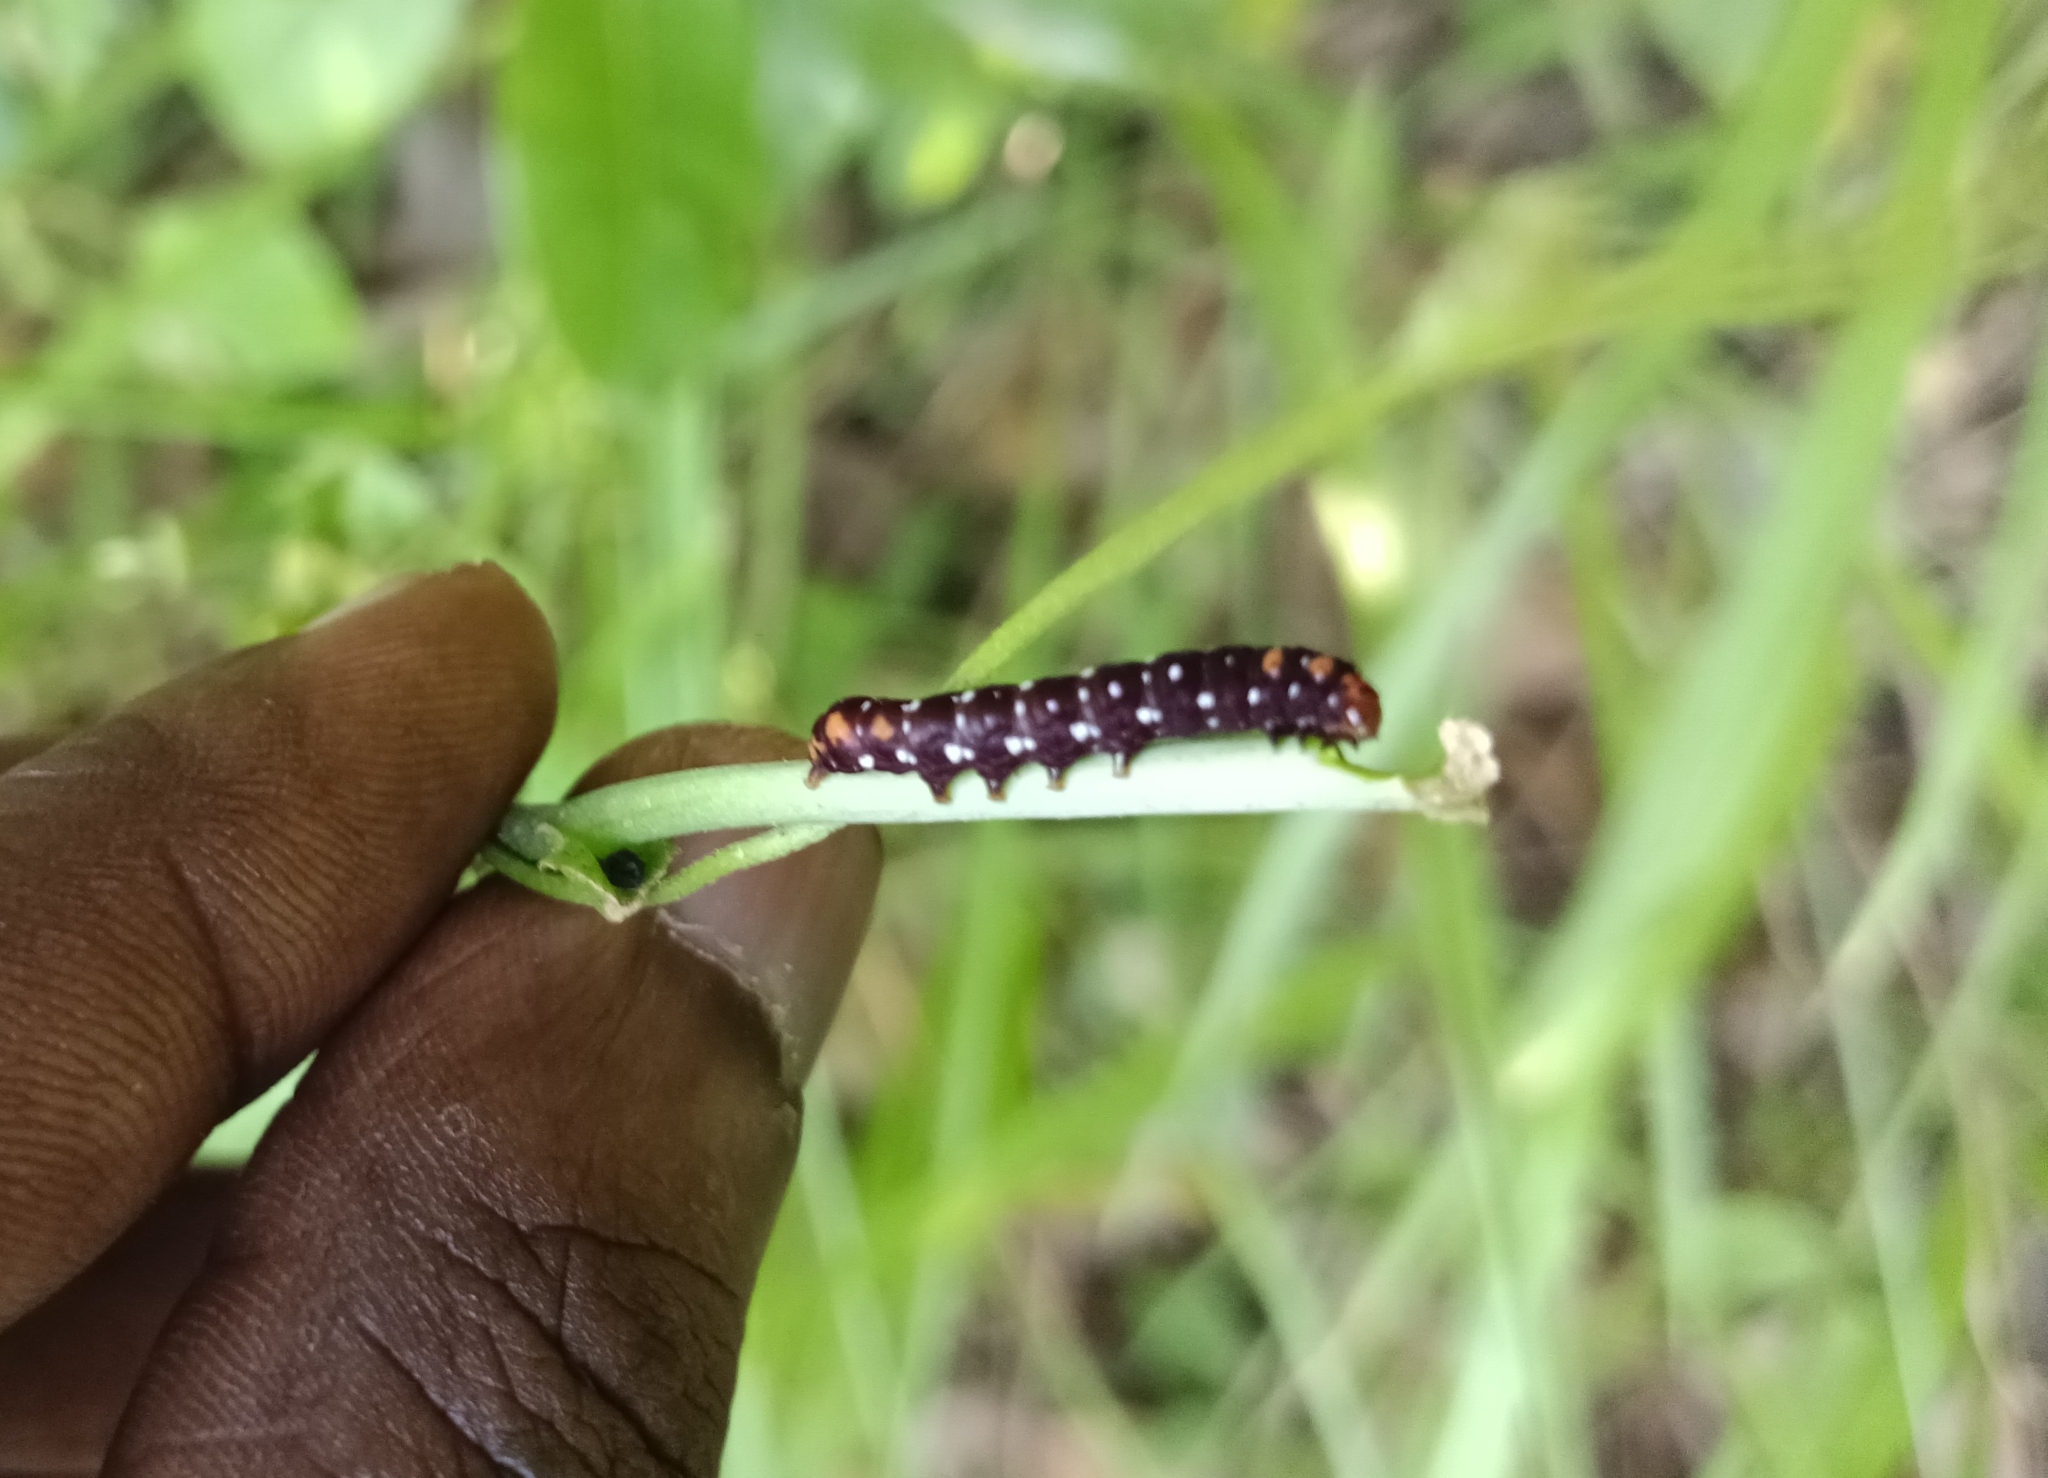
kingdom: Animalia
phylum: Arthropoda
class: Insecta
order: Lepidoptera
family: Noctuidae
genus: Polytela
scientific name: Polytela gloriosae
